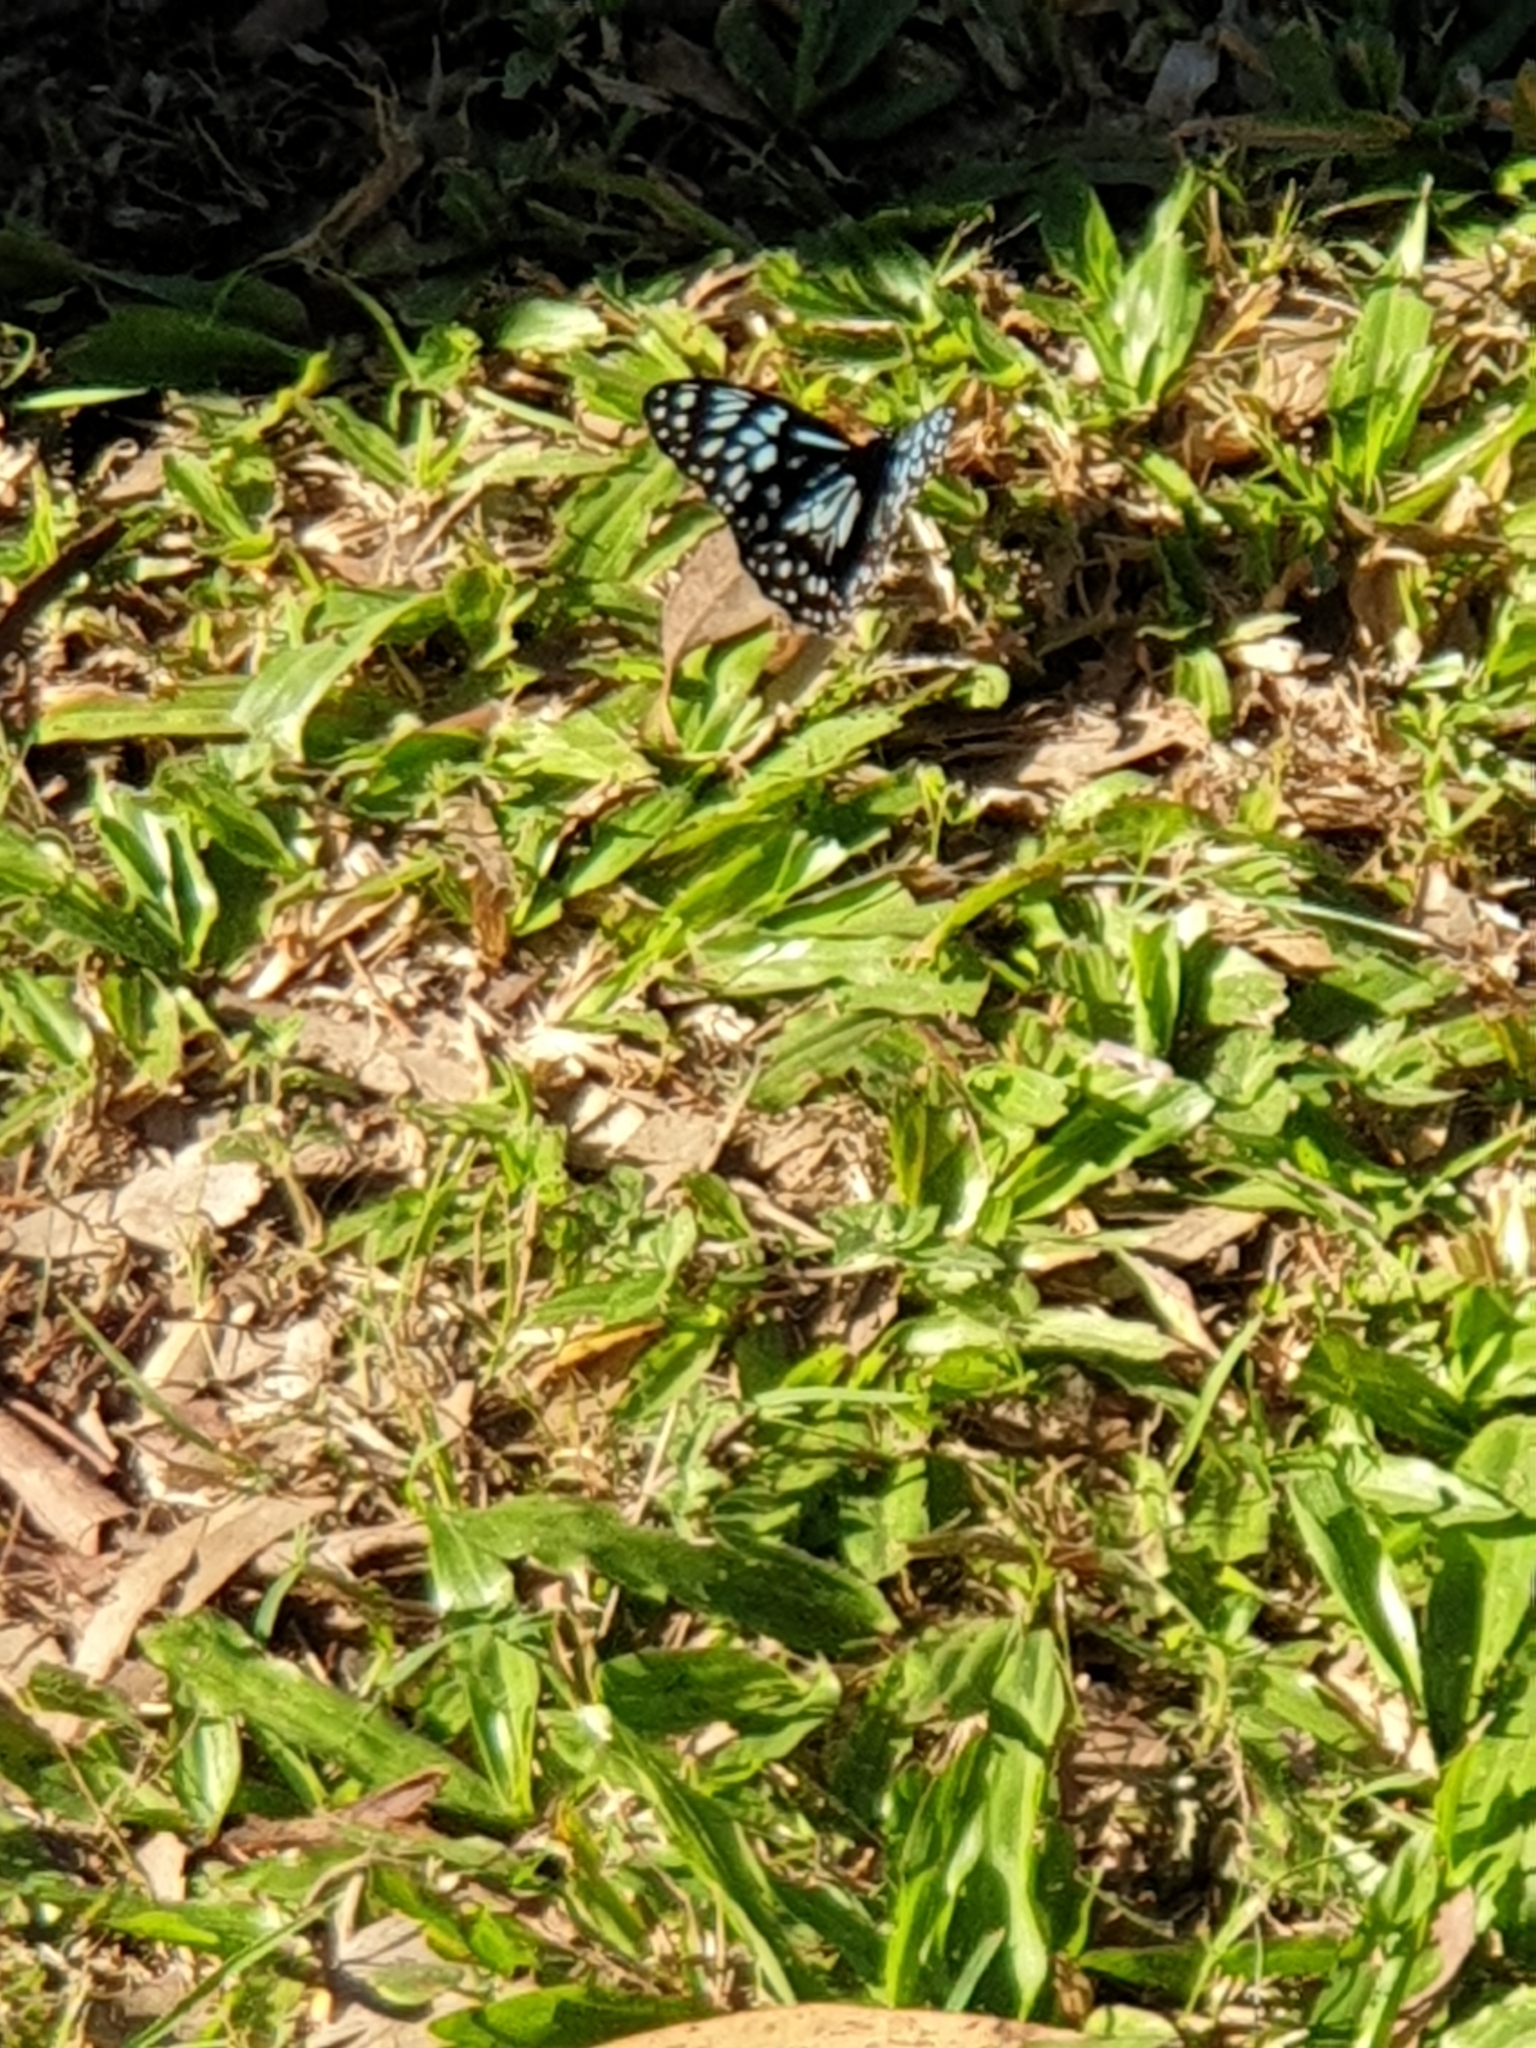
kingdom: Animalia
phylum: Arthropoda
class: Insecta
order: Lepidoptera
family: Nymphalidae
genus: Tirumala
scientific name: Tirumala hamata
